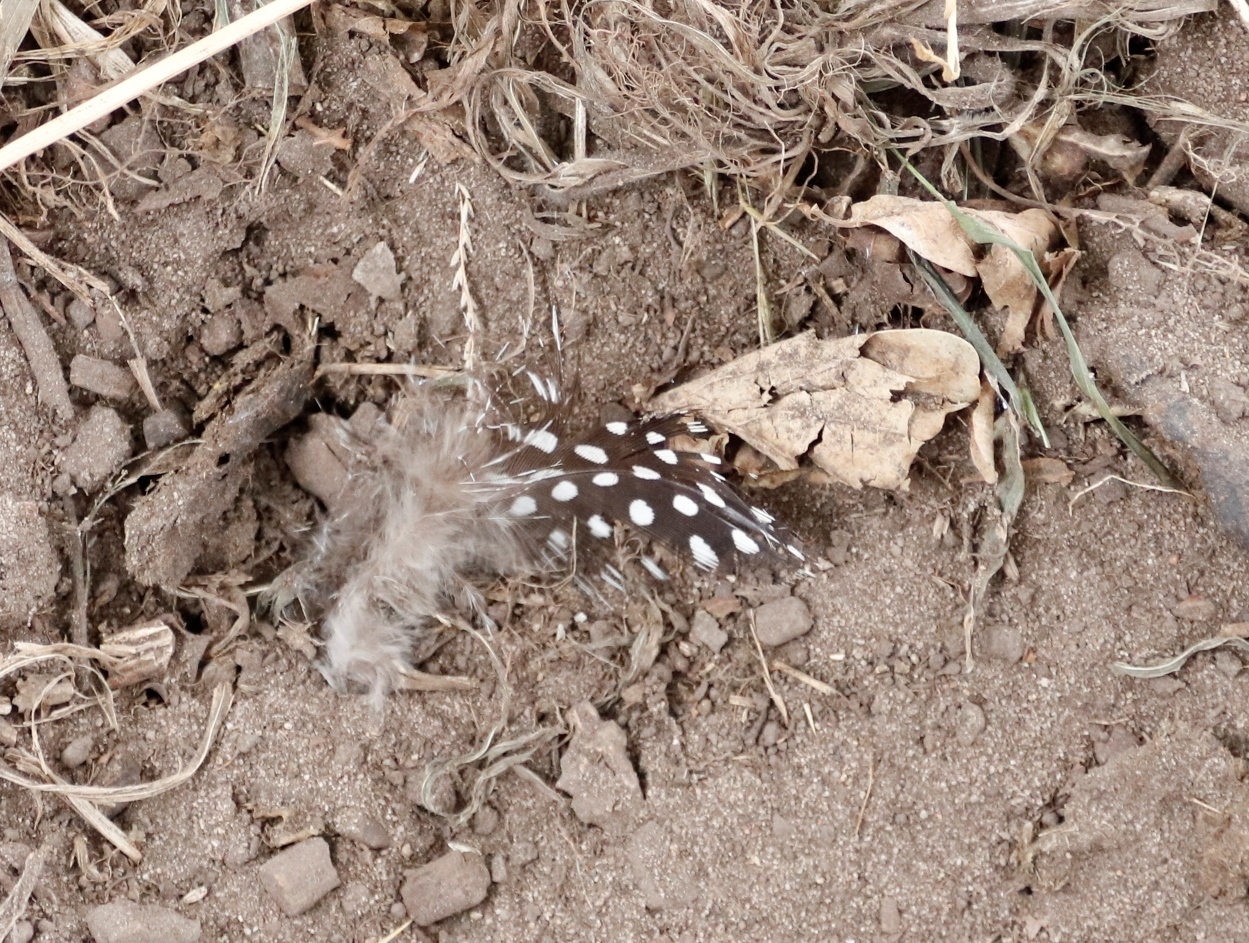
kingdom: Animalia
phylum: Chordata
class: Aves
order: Galliformes
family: Numididae
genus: Numida
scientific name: Numida meleagris
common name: Helmeted guineafowl
